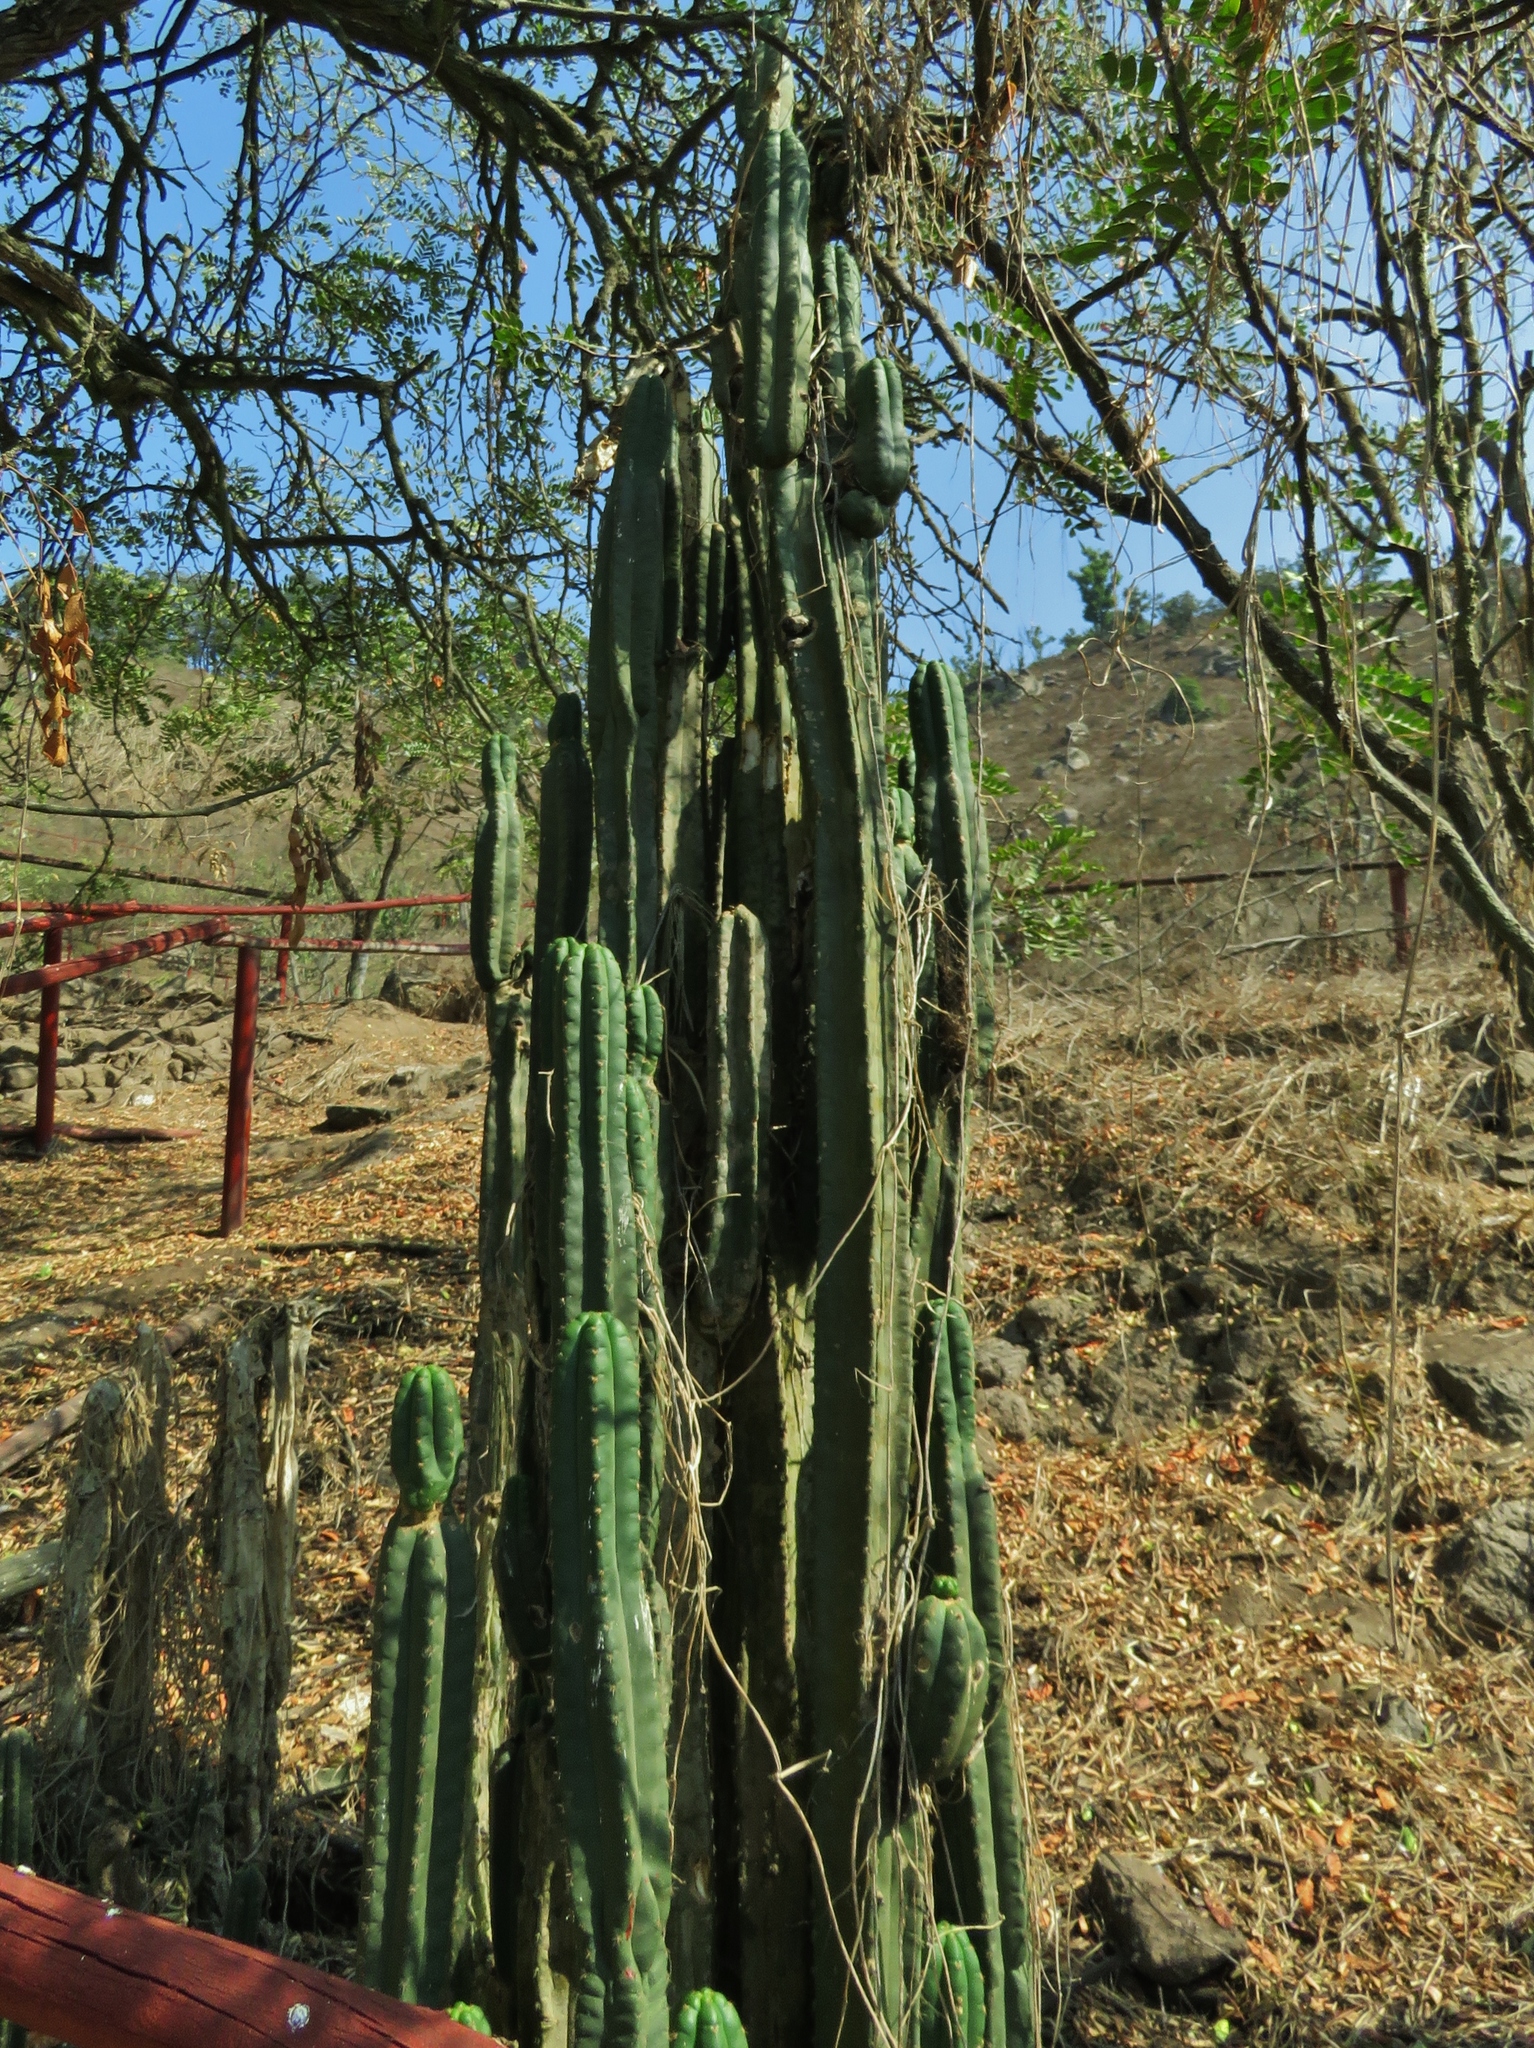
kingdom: Plantae
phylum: Tracheophyta
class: Magnoliopsida
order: Caryophyllales
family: Cactaceae
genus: Trichocereus
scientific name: Trichocereus macrogonus
